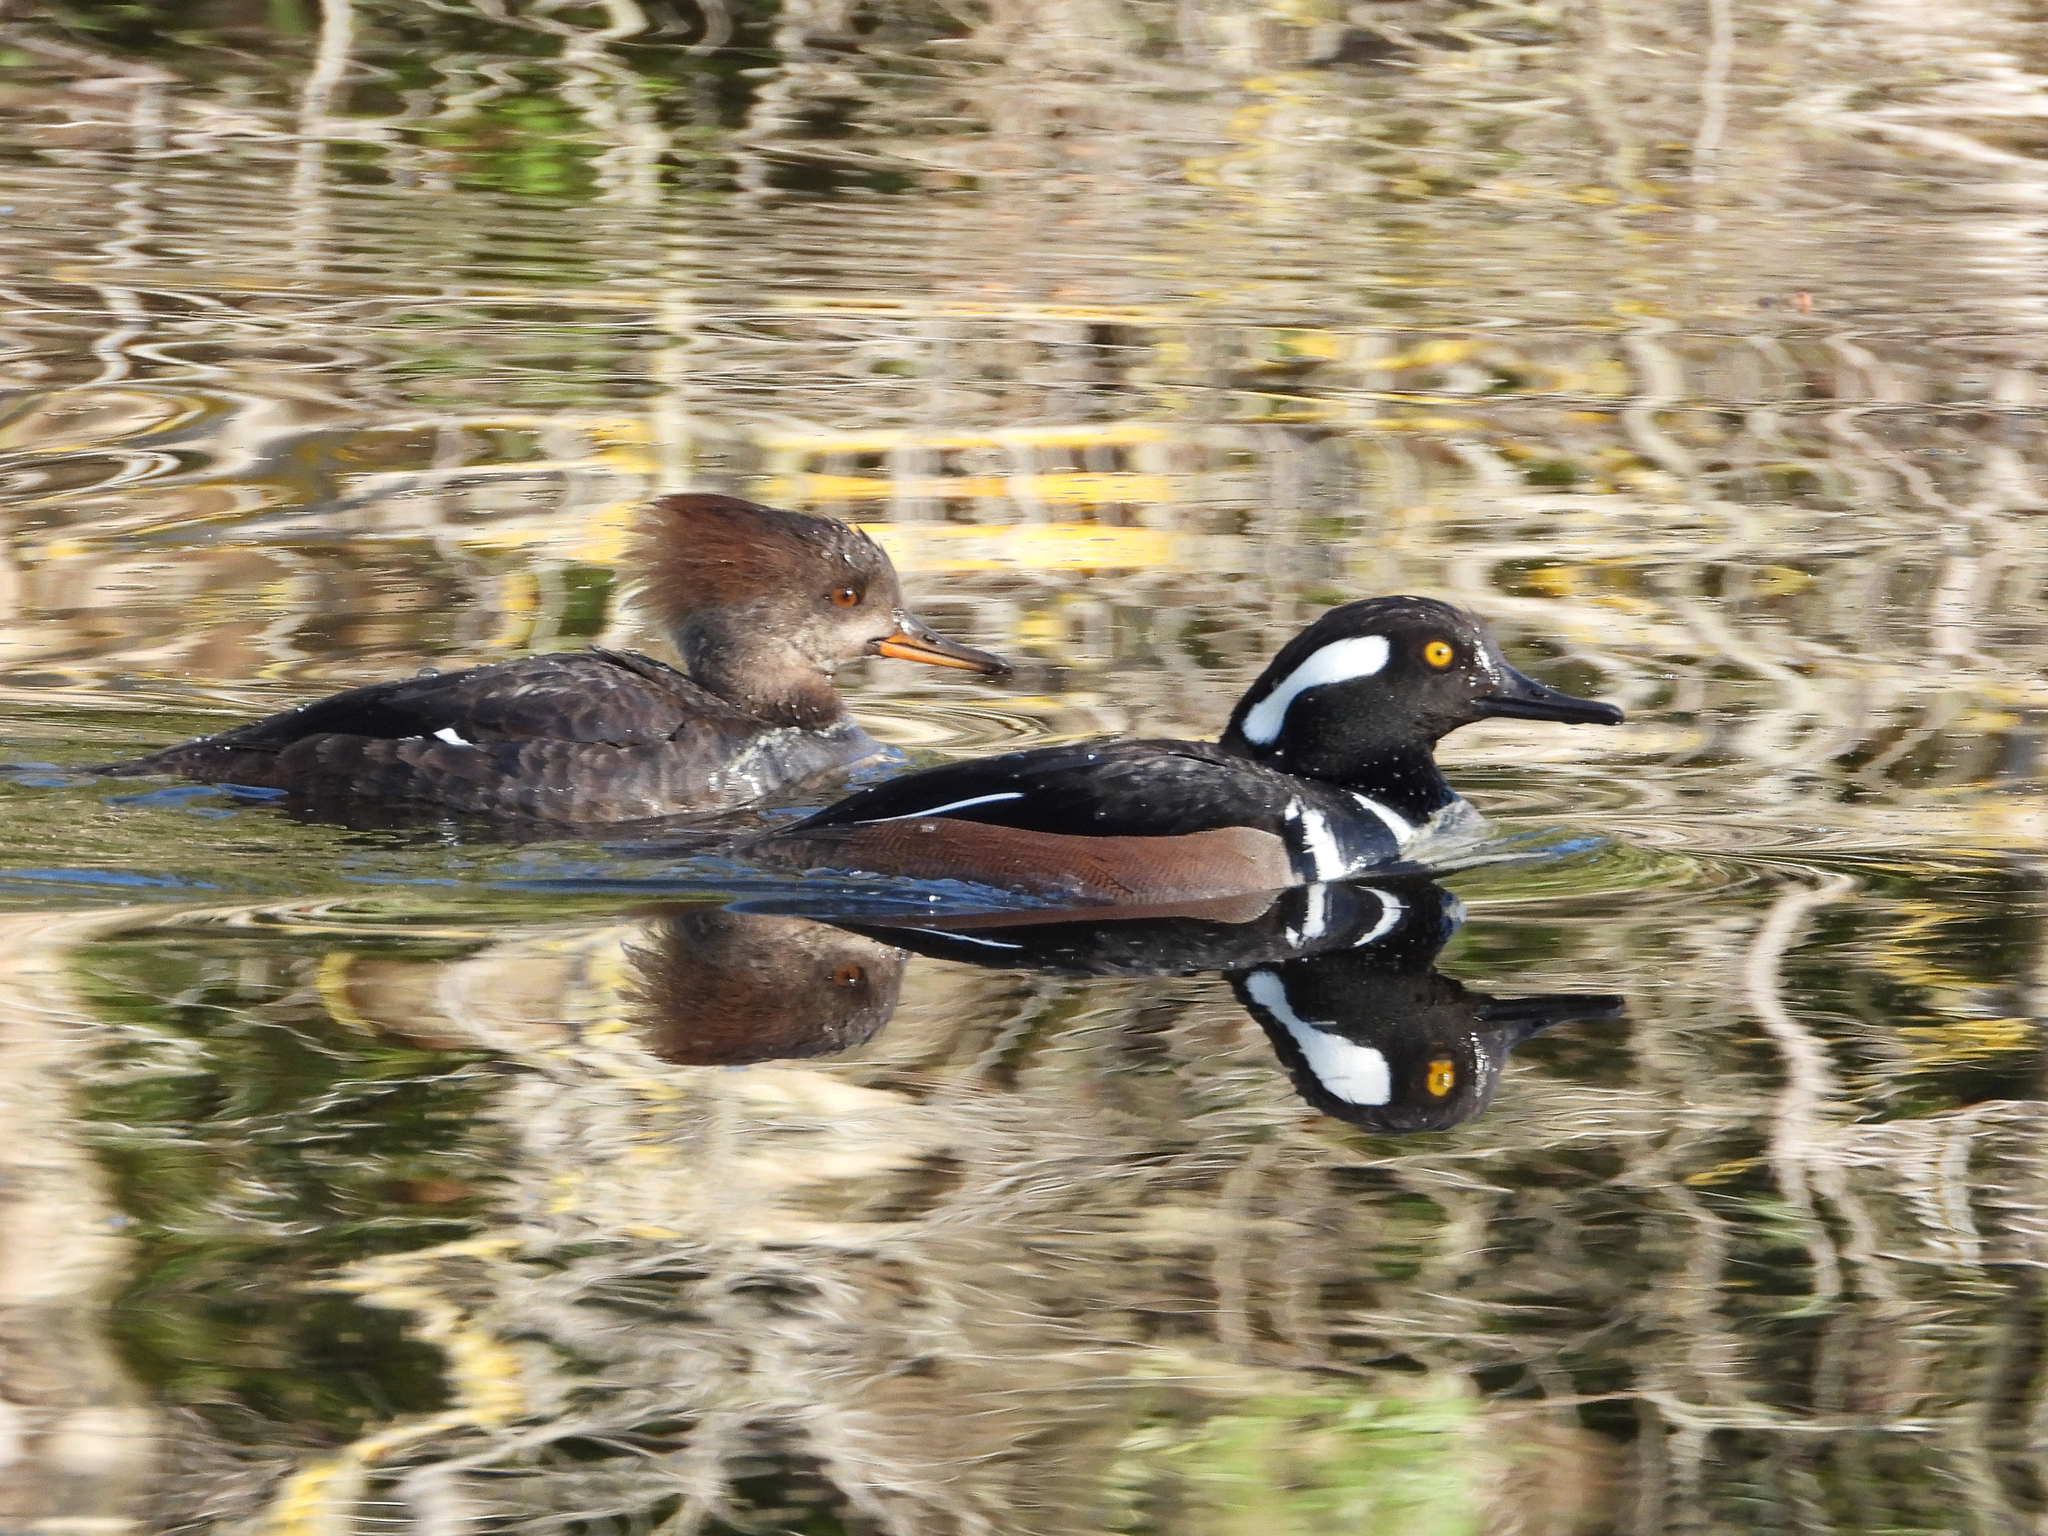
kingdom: Animalia
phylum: Chordata
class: Aves
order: Anseriformes
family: Anatidae
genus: Lophodytes
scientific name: Lophodytes cucullatus
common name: Hooded merganser
